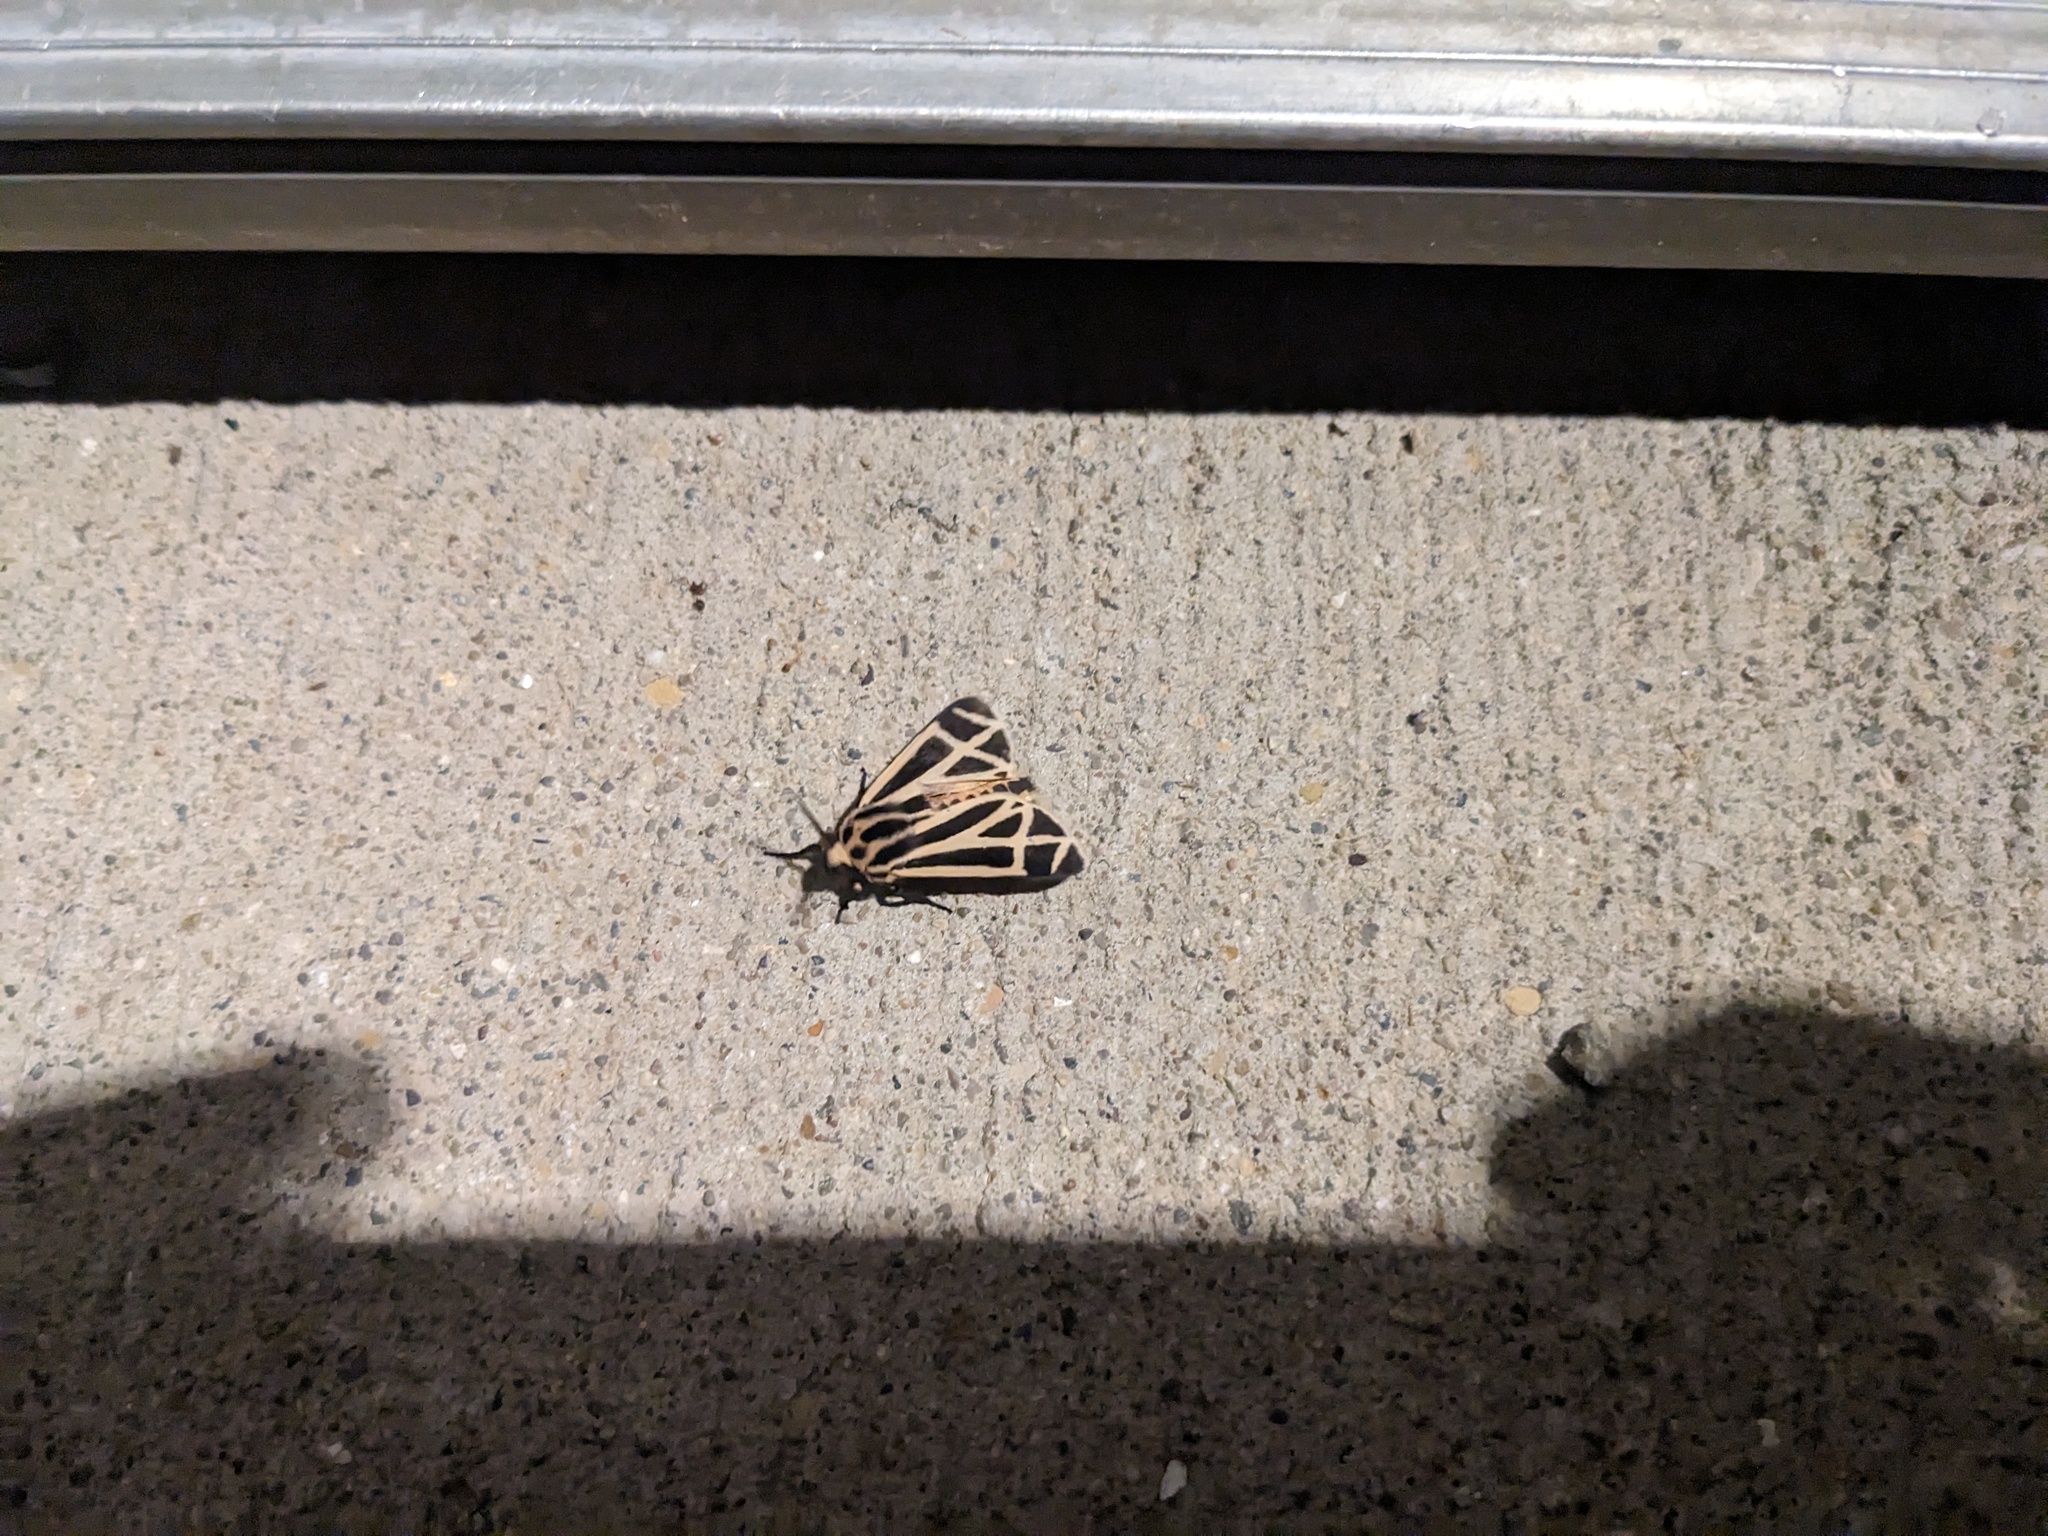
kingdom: Animalia
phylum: Arthropoda
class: Insecta
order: Lepidoptera
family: Erebidae
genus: Apantesis
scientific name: Apantesis phalerata
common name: Harnessed tiger moth
